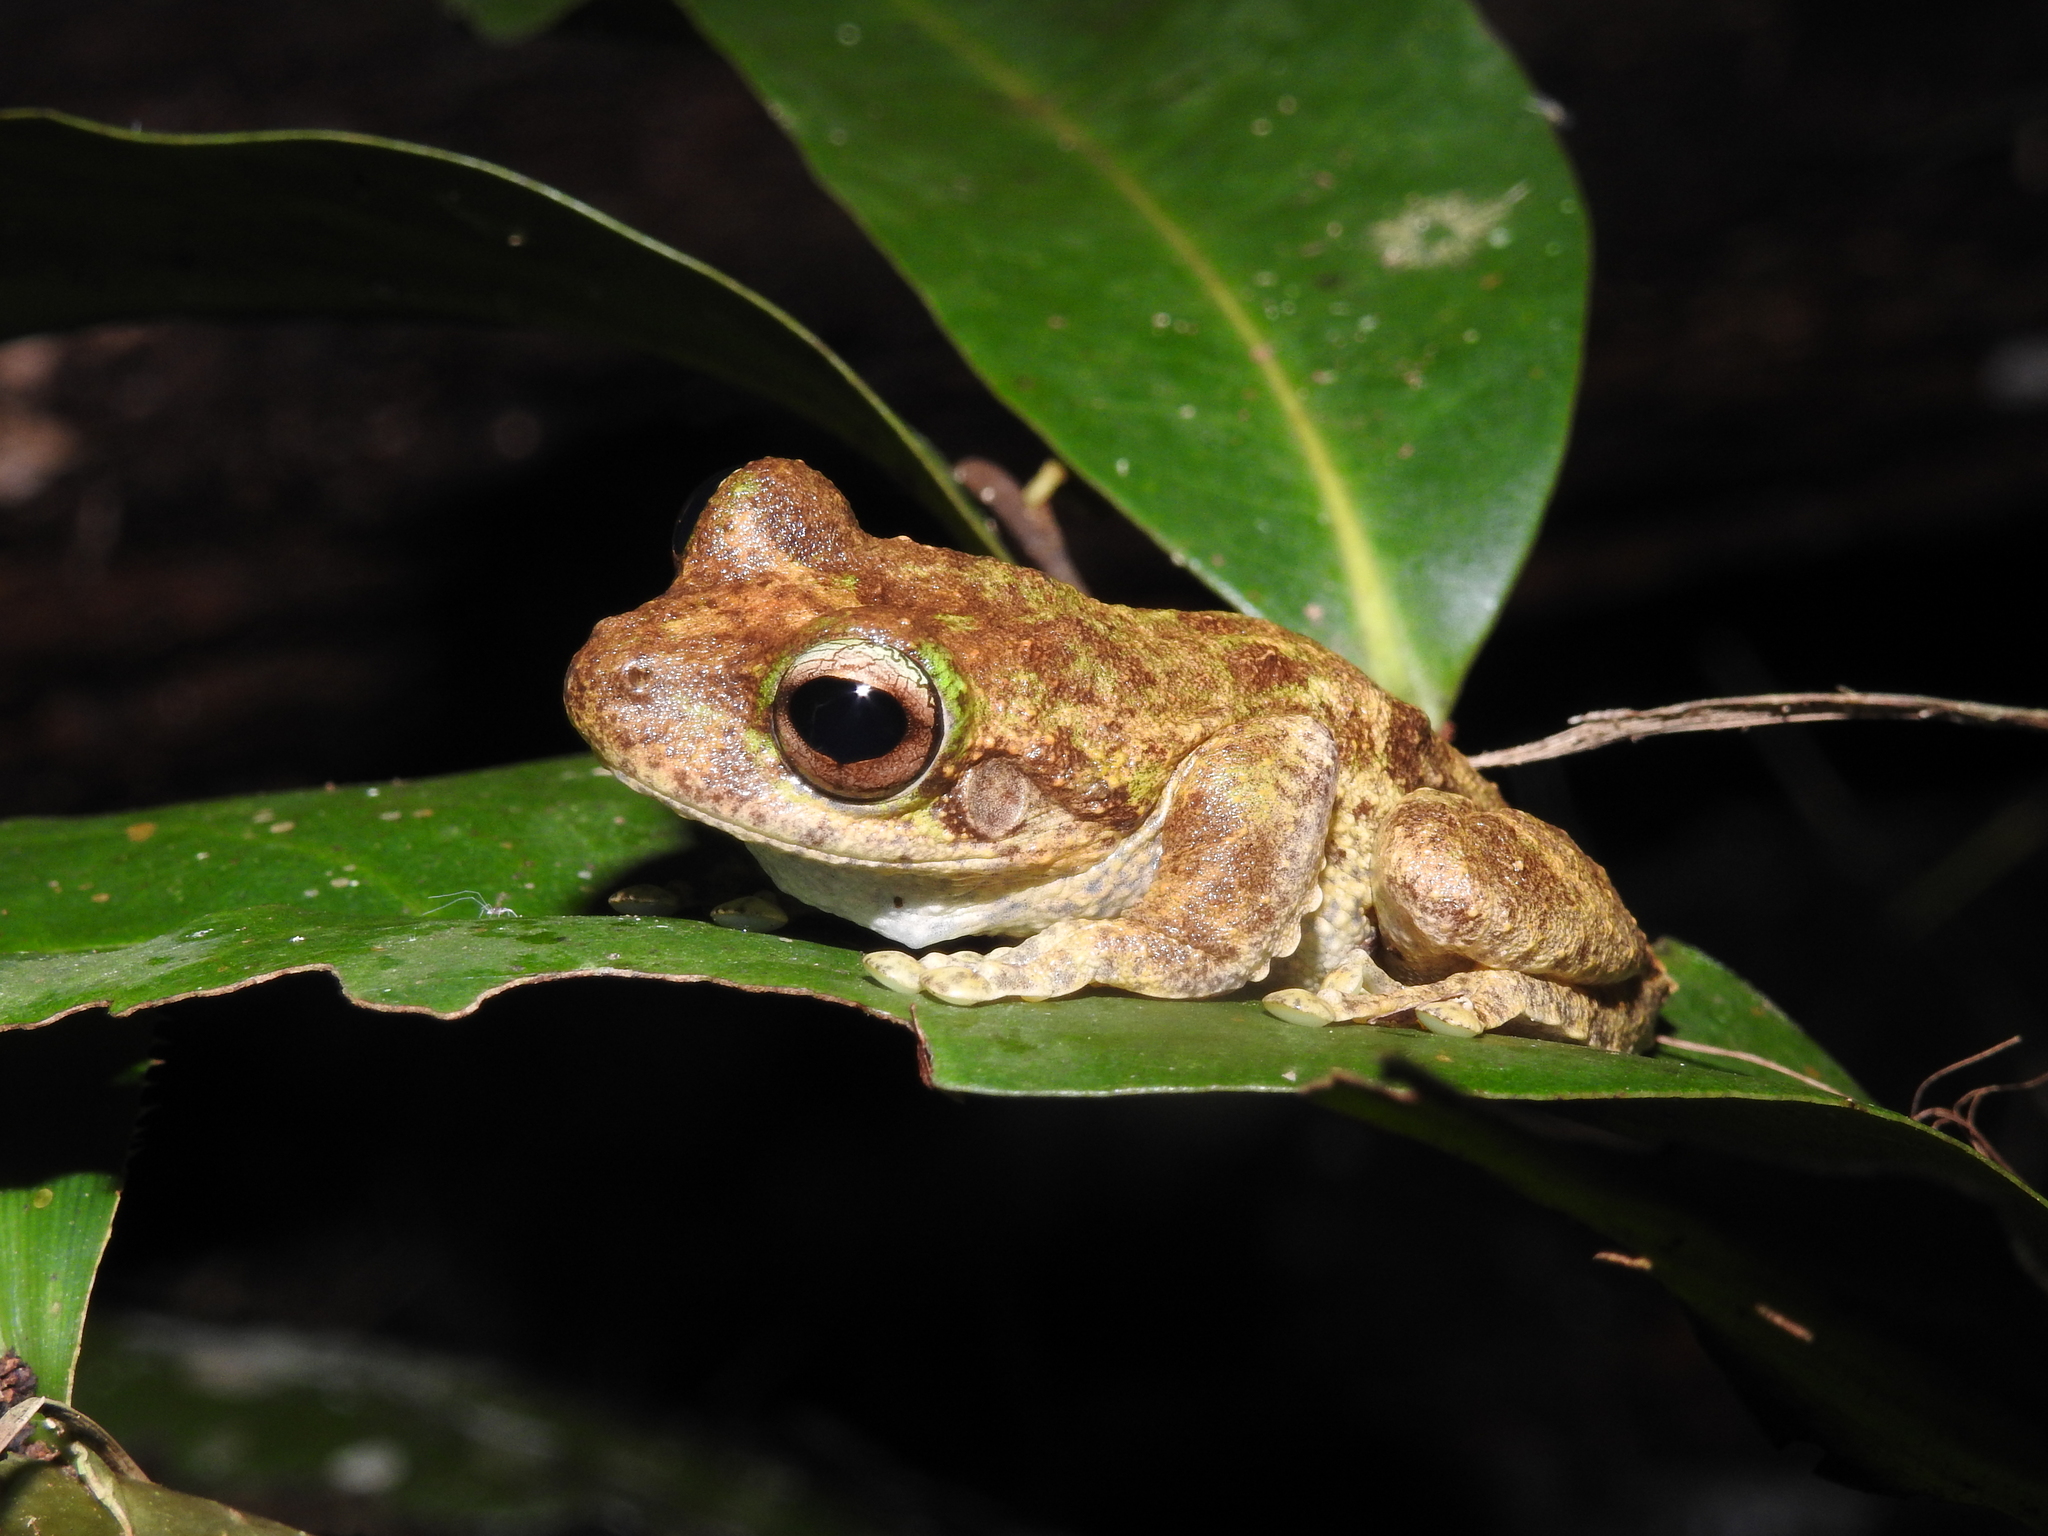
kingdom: Animalia
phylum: Chordata
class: Amphibia
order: Anura
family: Pelodryadidae
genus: Ranoidea
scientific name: Ranoidea serrata
